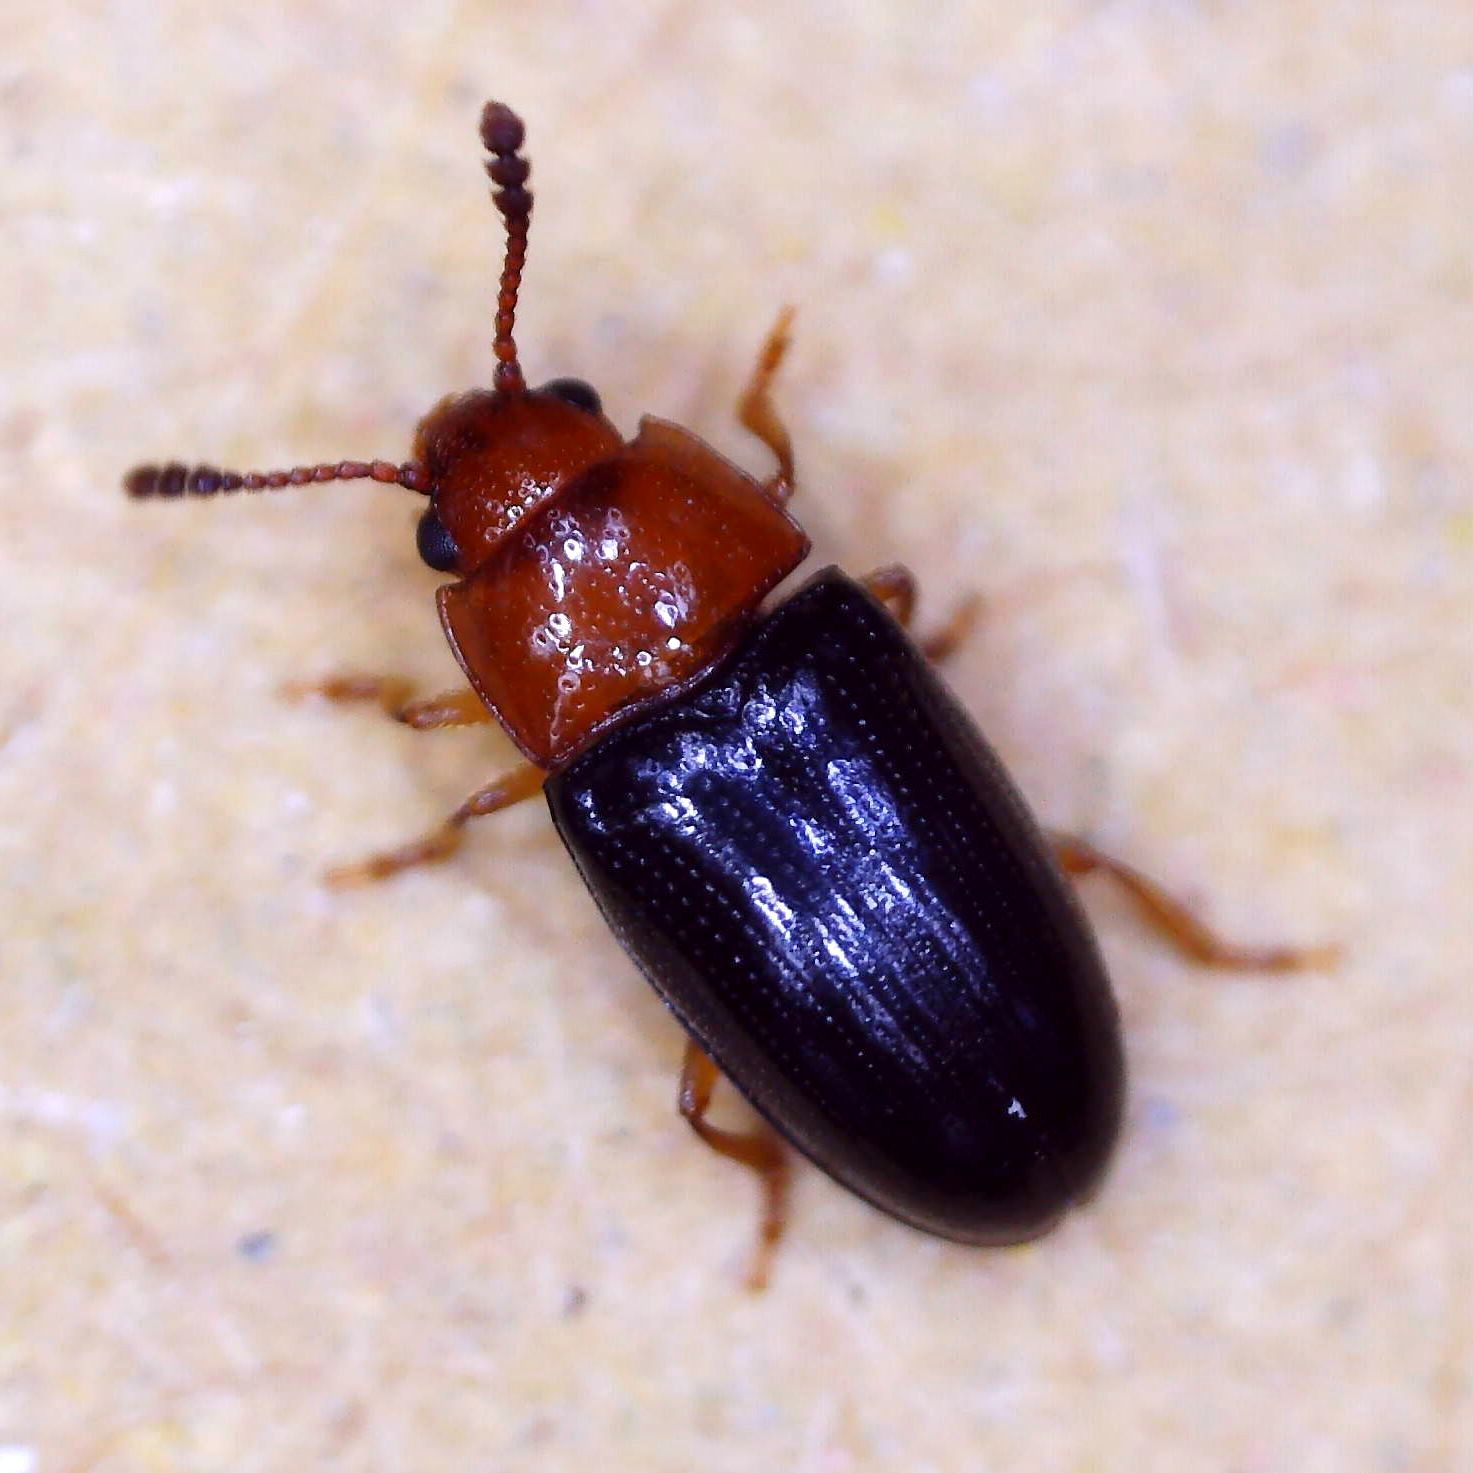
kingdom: Animalia
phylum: Arthropoda
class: Insecta
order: Coleoptera
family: Erotylidae
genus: Triplax
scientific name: Triplax lacordairii
